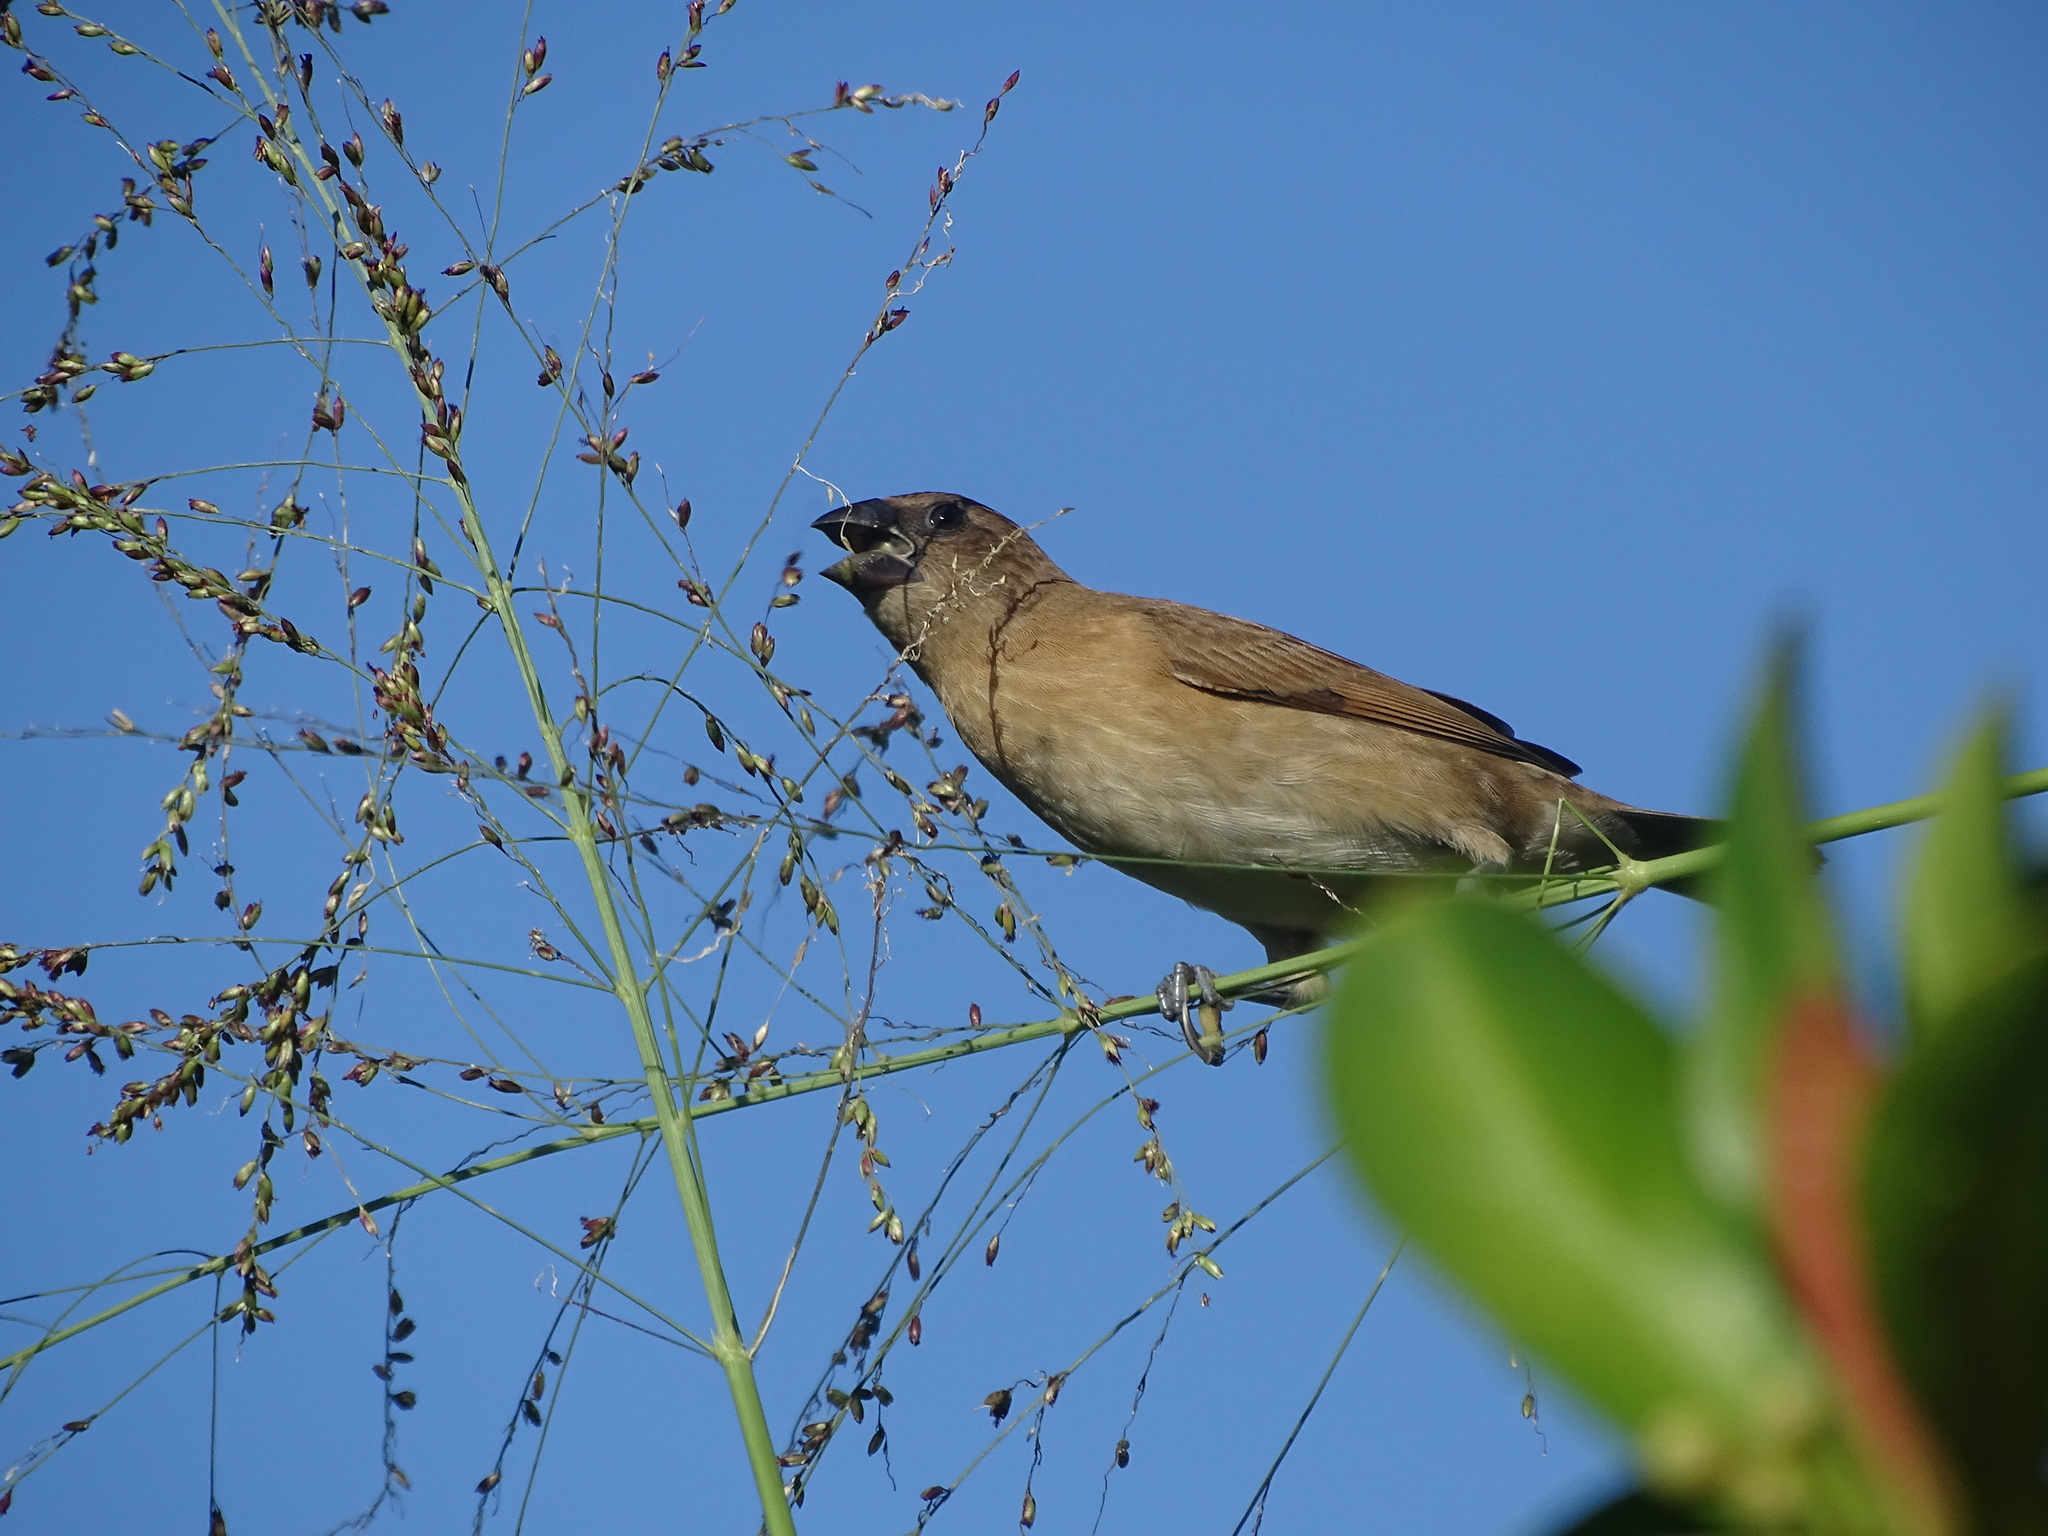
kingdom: Animalia
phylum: Chordata
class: Aves
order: Passeriformes
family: Estrildidae
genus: Lonchura
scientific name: Lonchura punctulata
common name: Scaly-breasted munia
